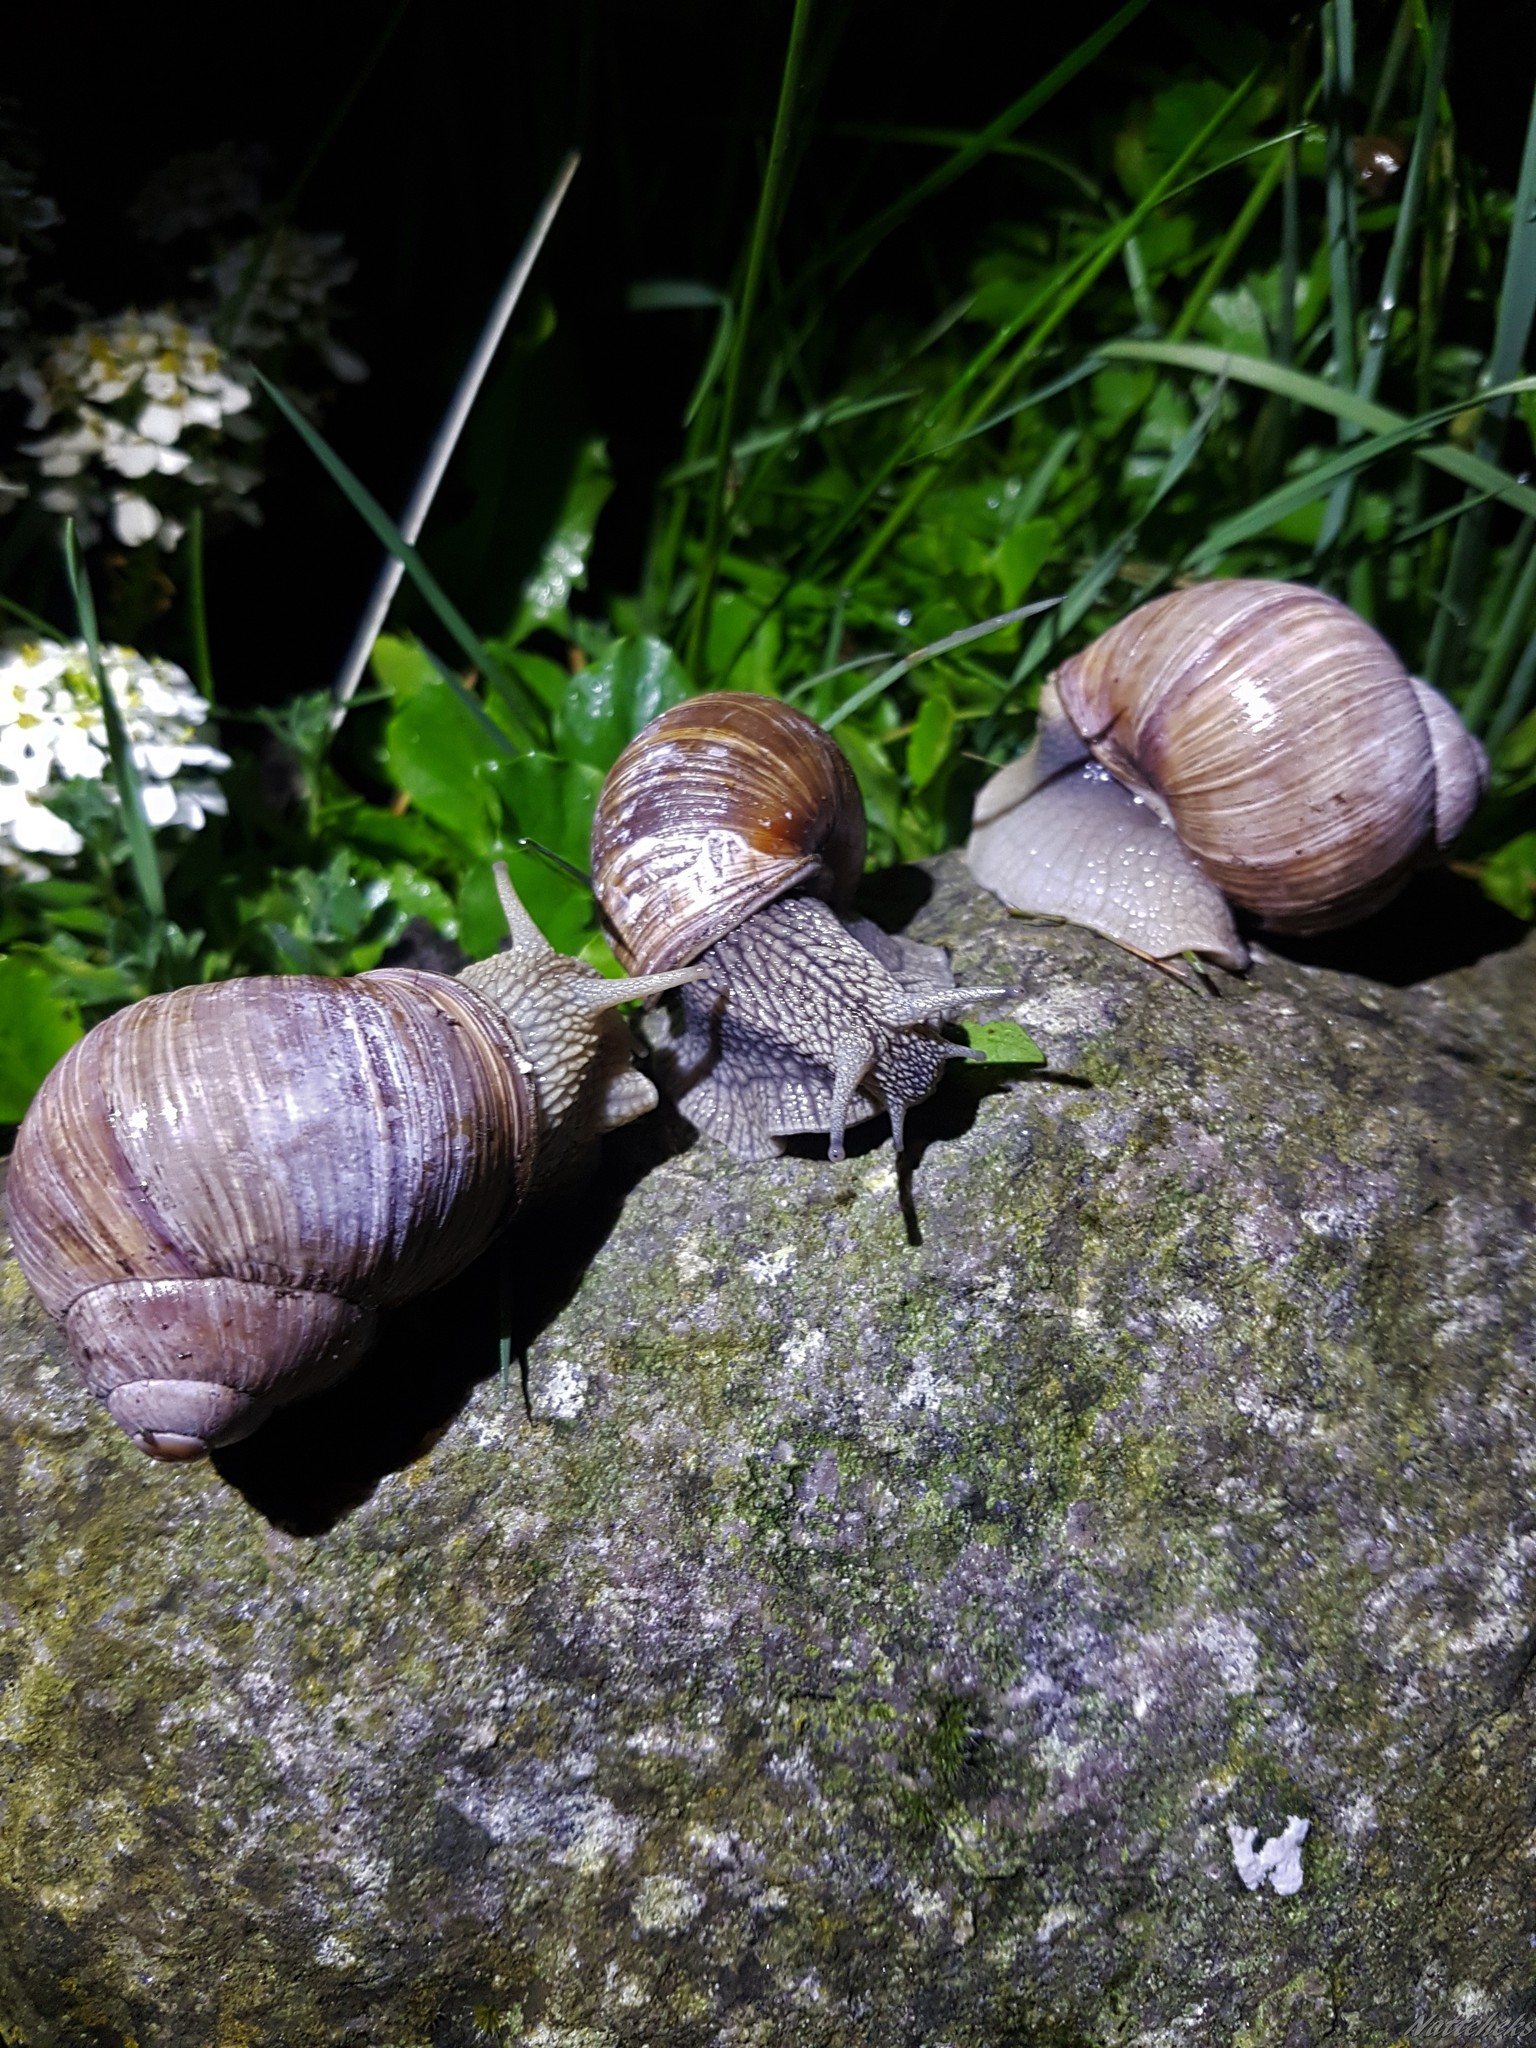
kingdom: Animalia
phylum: Mollusca
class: Gastropoda
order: Stylommatophora
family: Helicidae
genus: Helix
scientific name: Helix pomatia
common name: Roman snail
